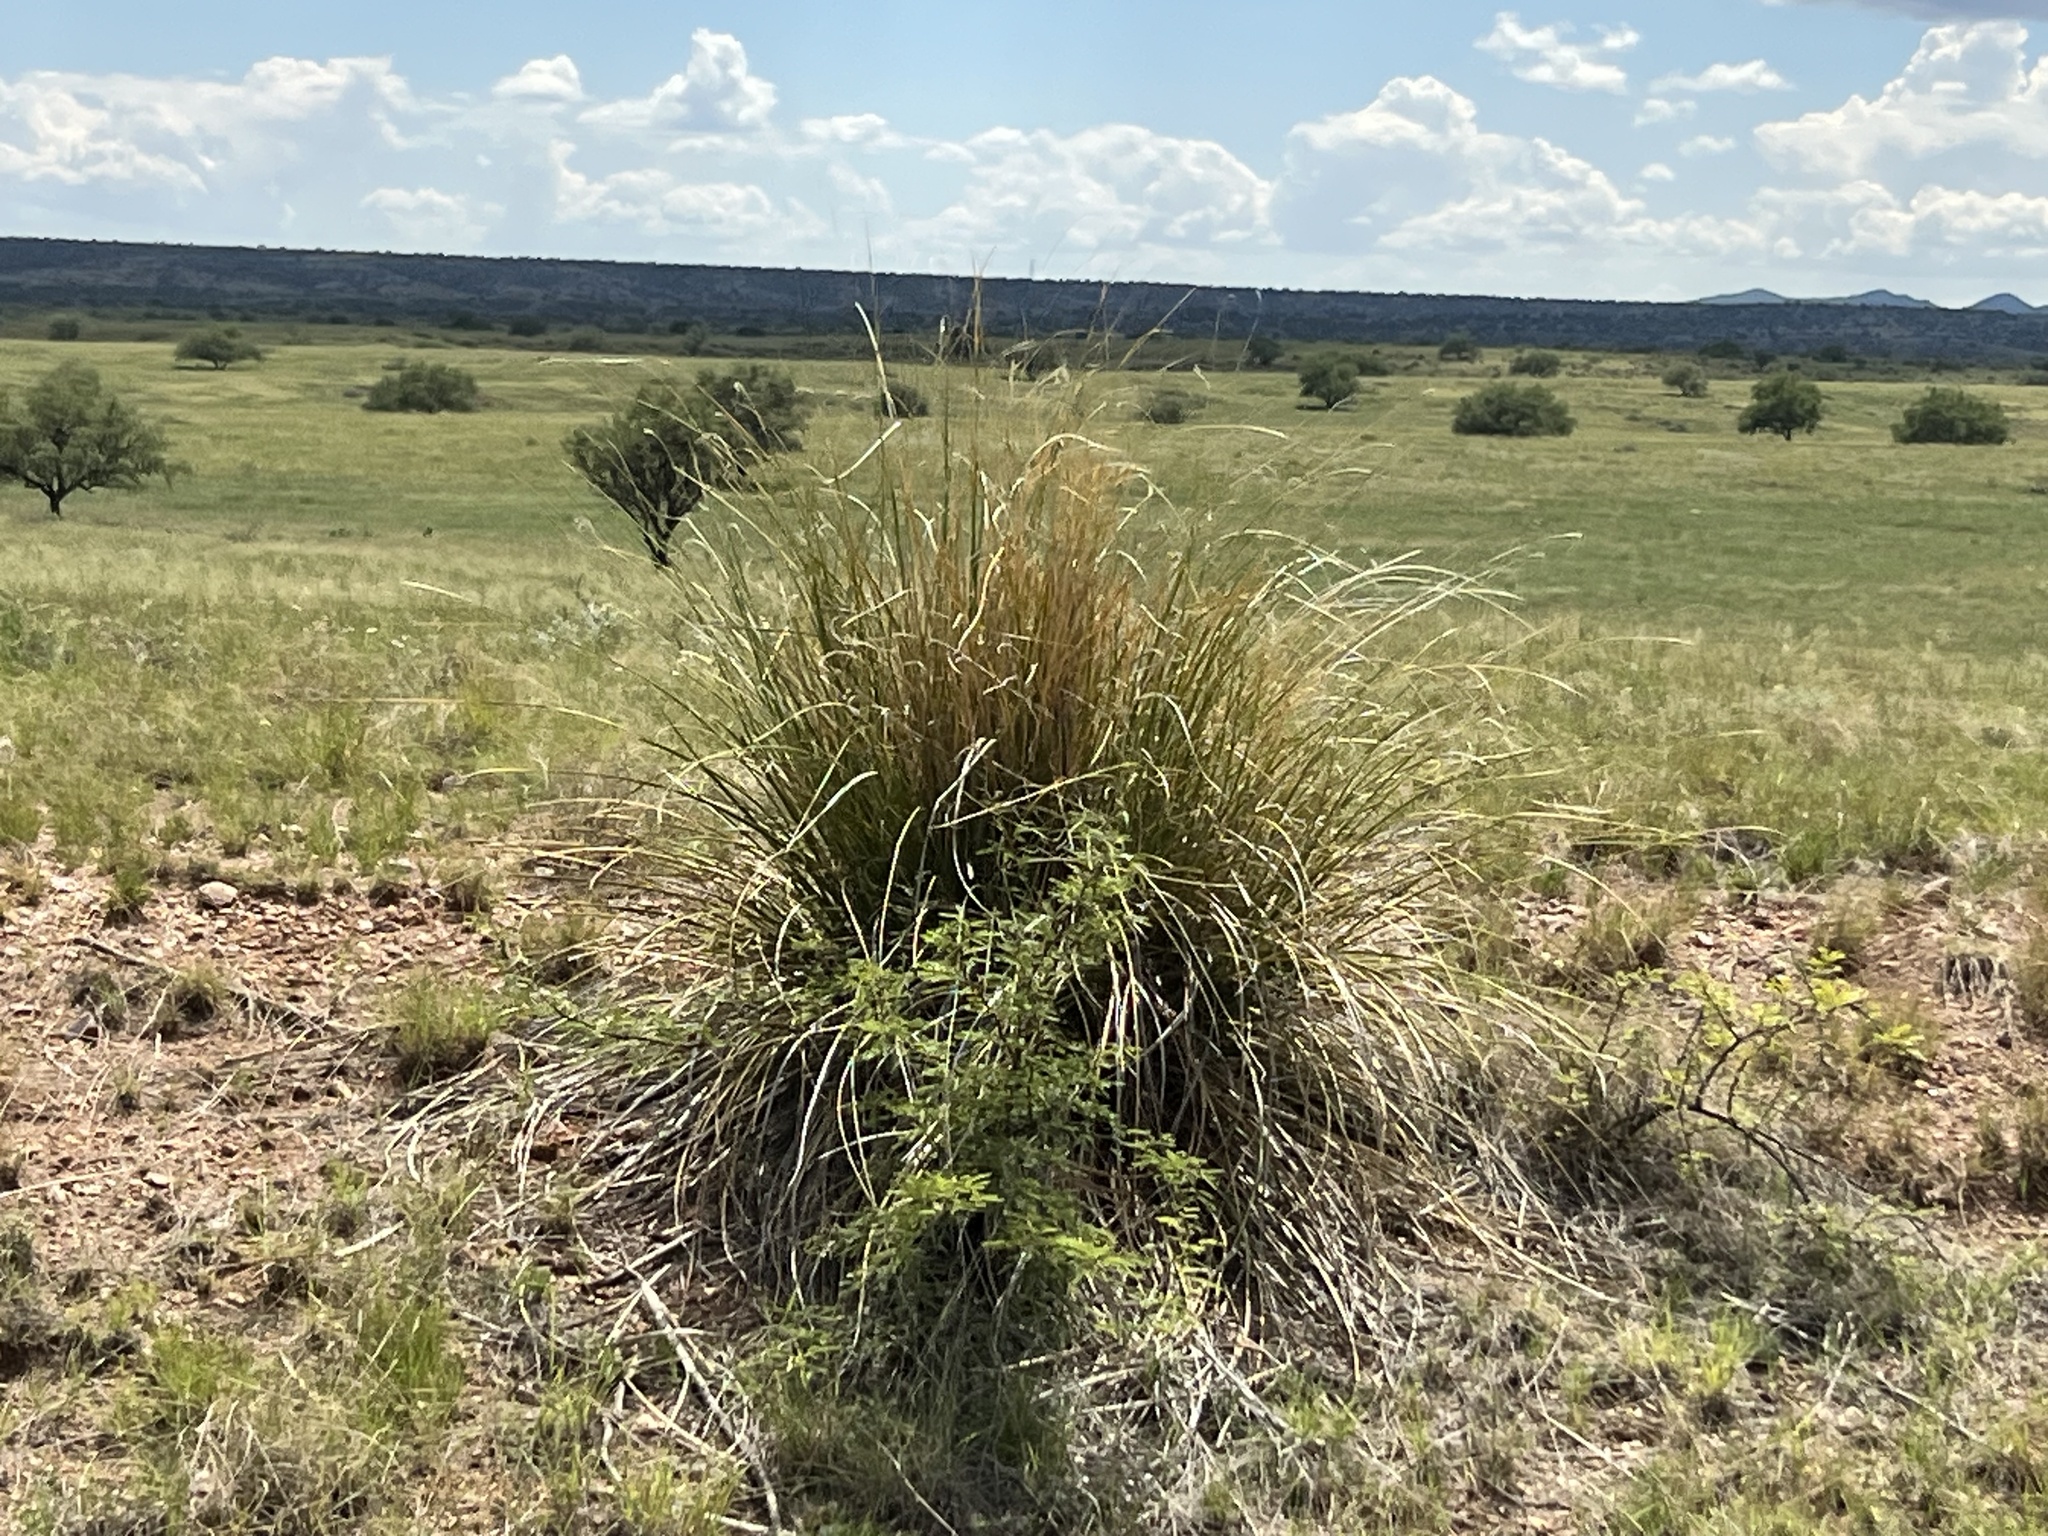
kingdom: Plantae
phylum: Tracheophyta
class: Liliopsida
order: Asparagales
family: Asparagaceae
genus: Nolina
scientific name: Nolina microcarpa
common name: Bear-grass
